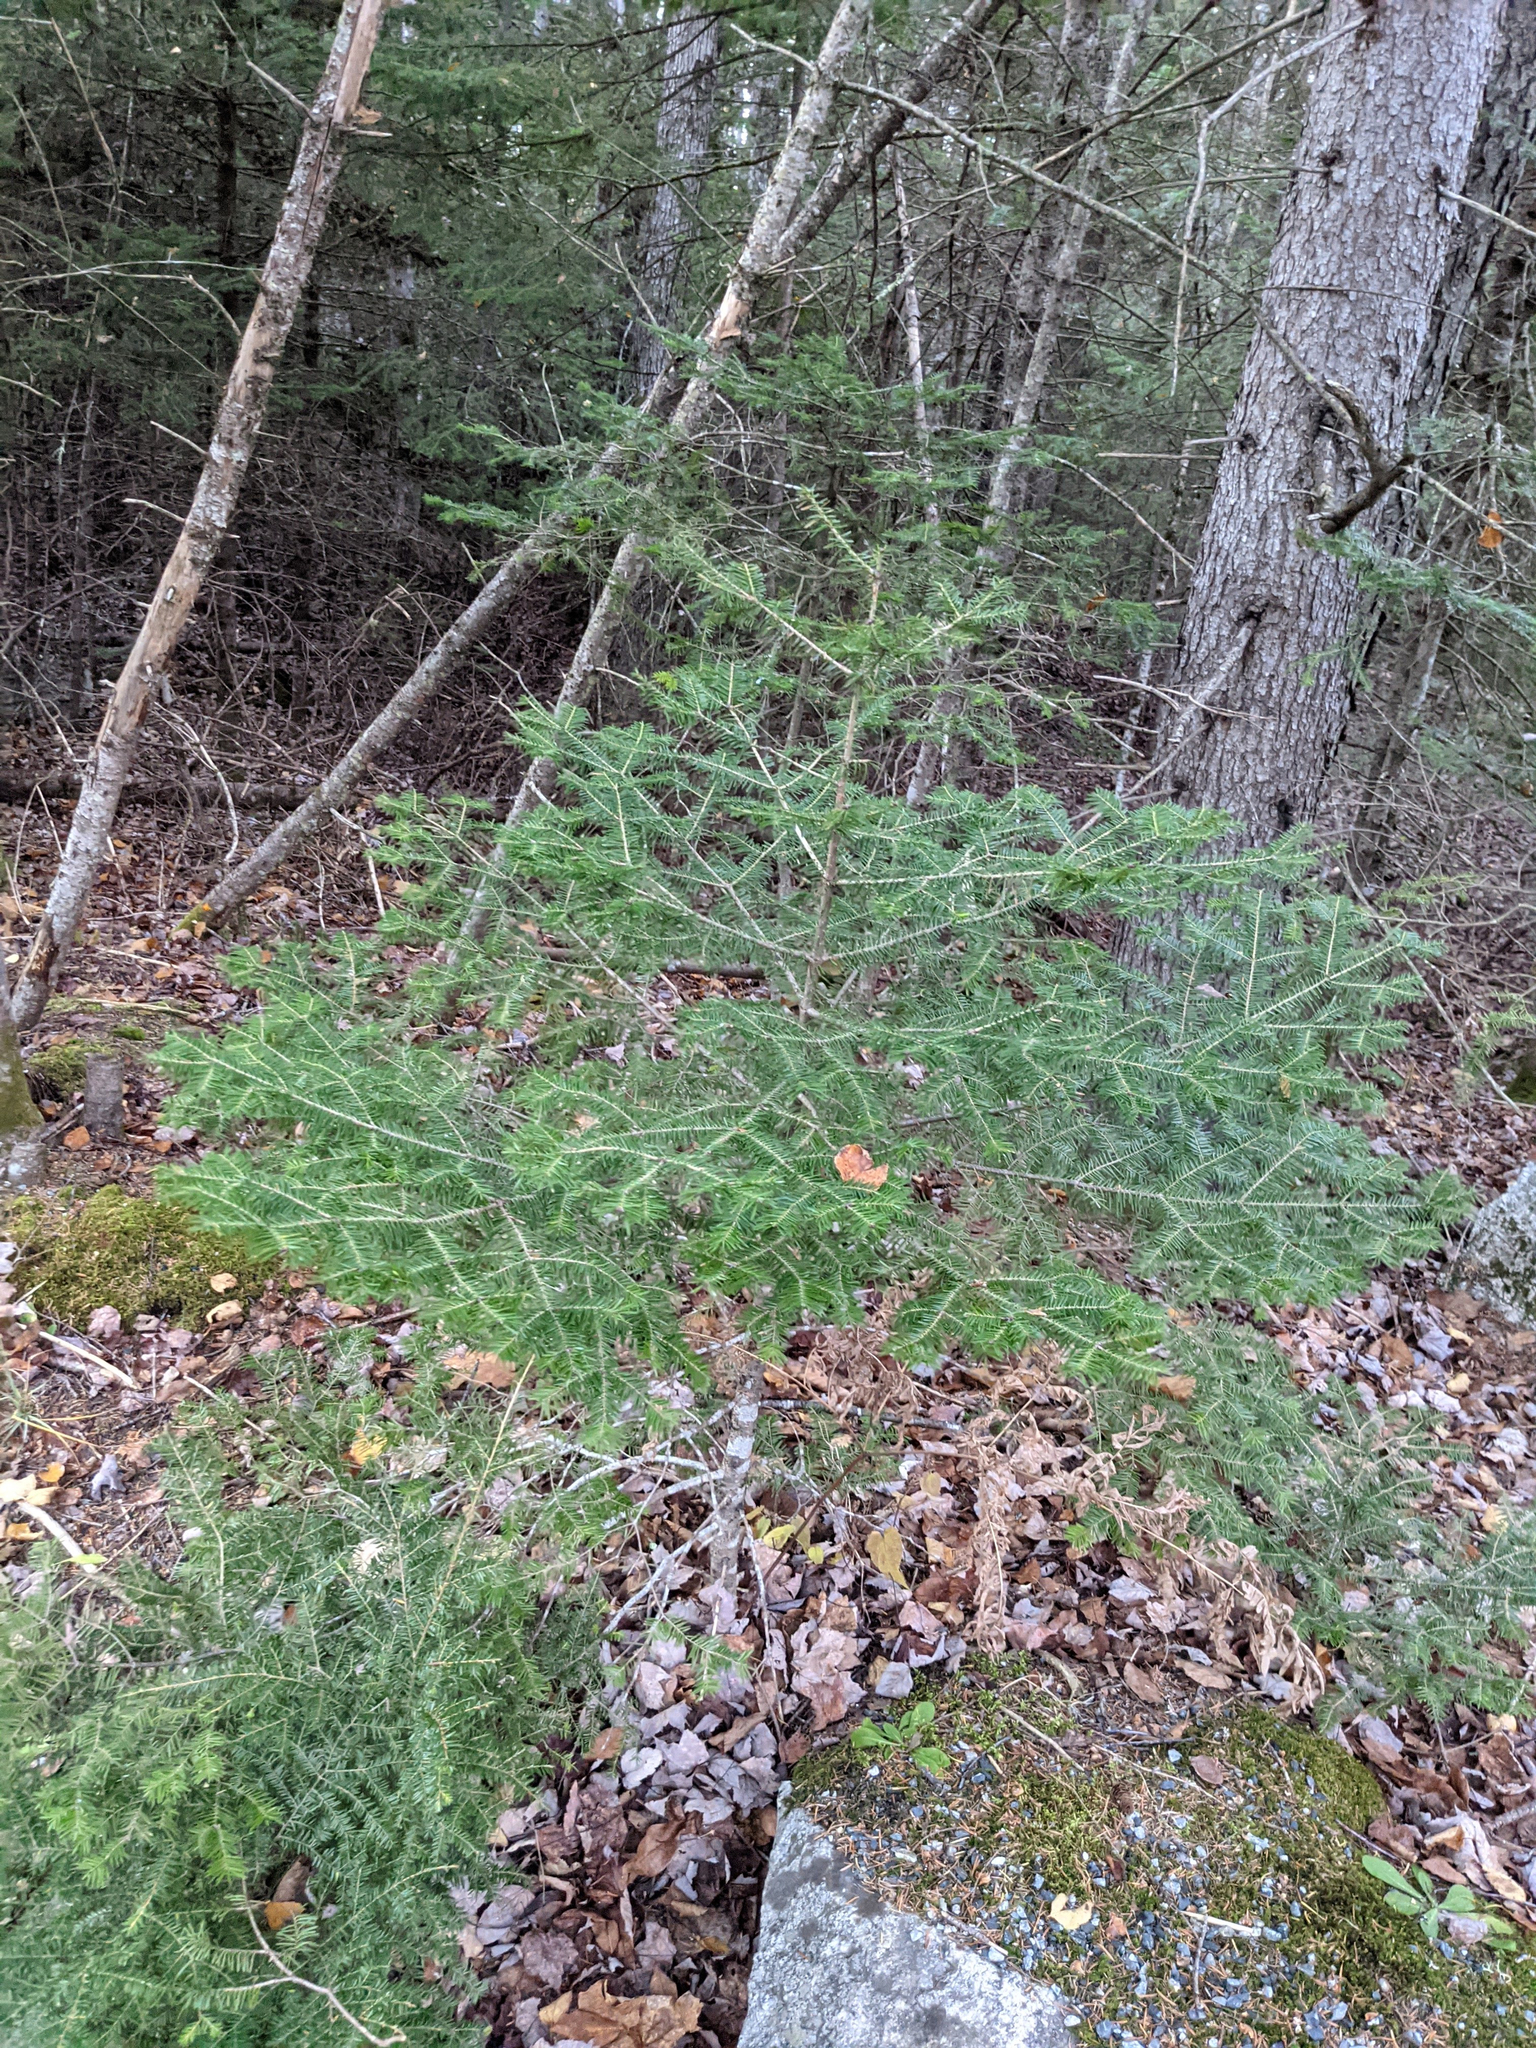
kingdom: Plantae
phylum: Tracheophyta
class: Pinopsida
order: Pinales
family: Pinaceae
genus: Abies
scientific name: Abies balsamea
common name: Balsam fir
